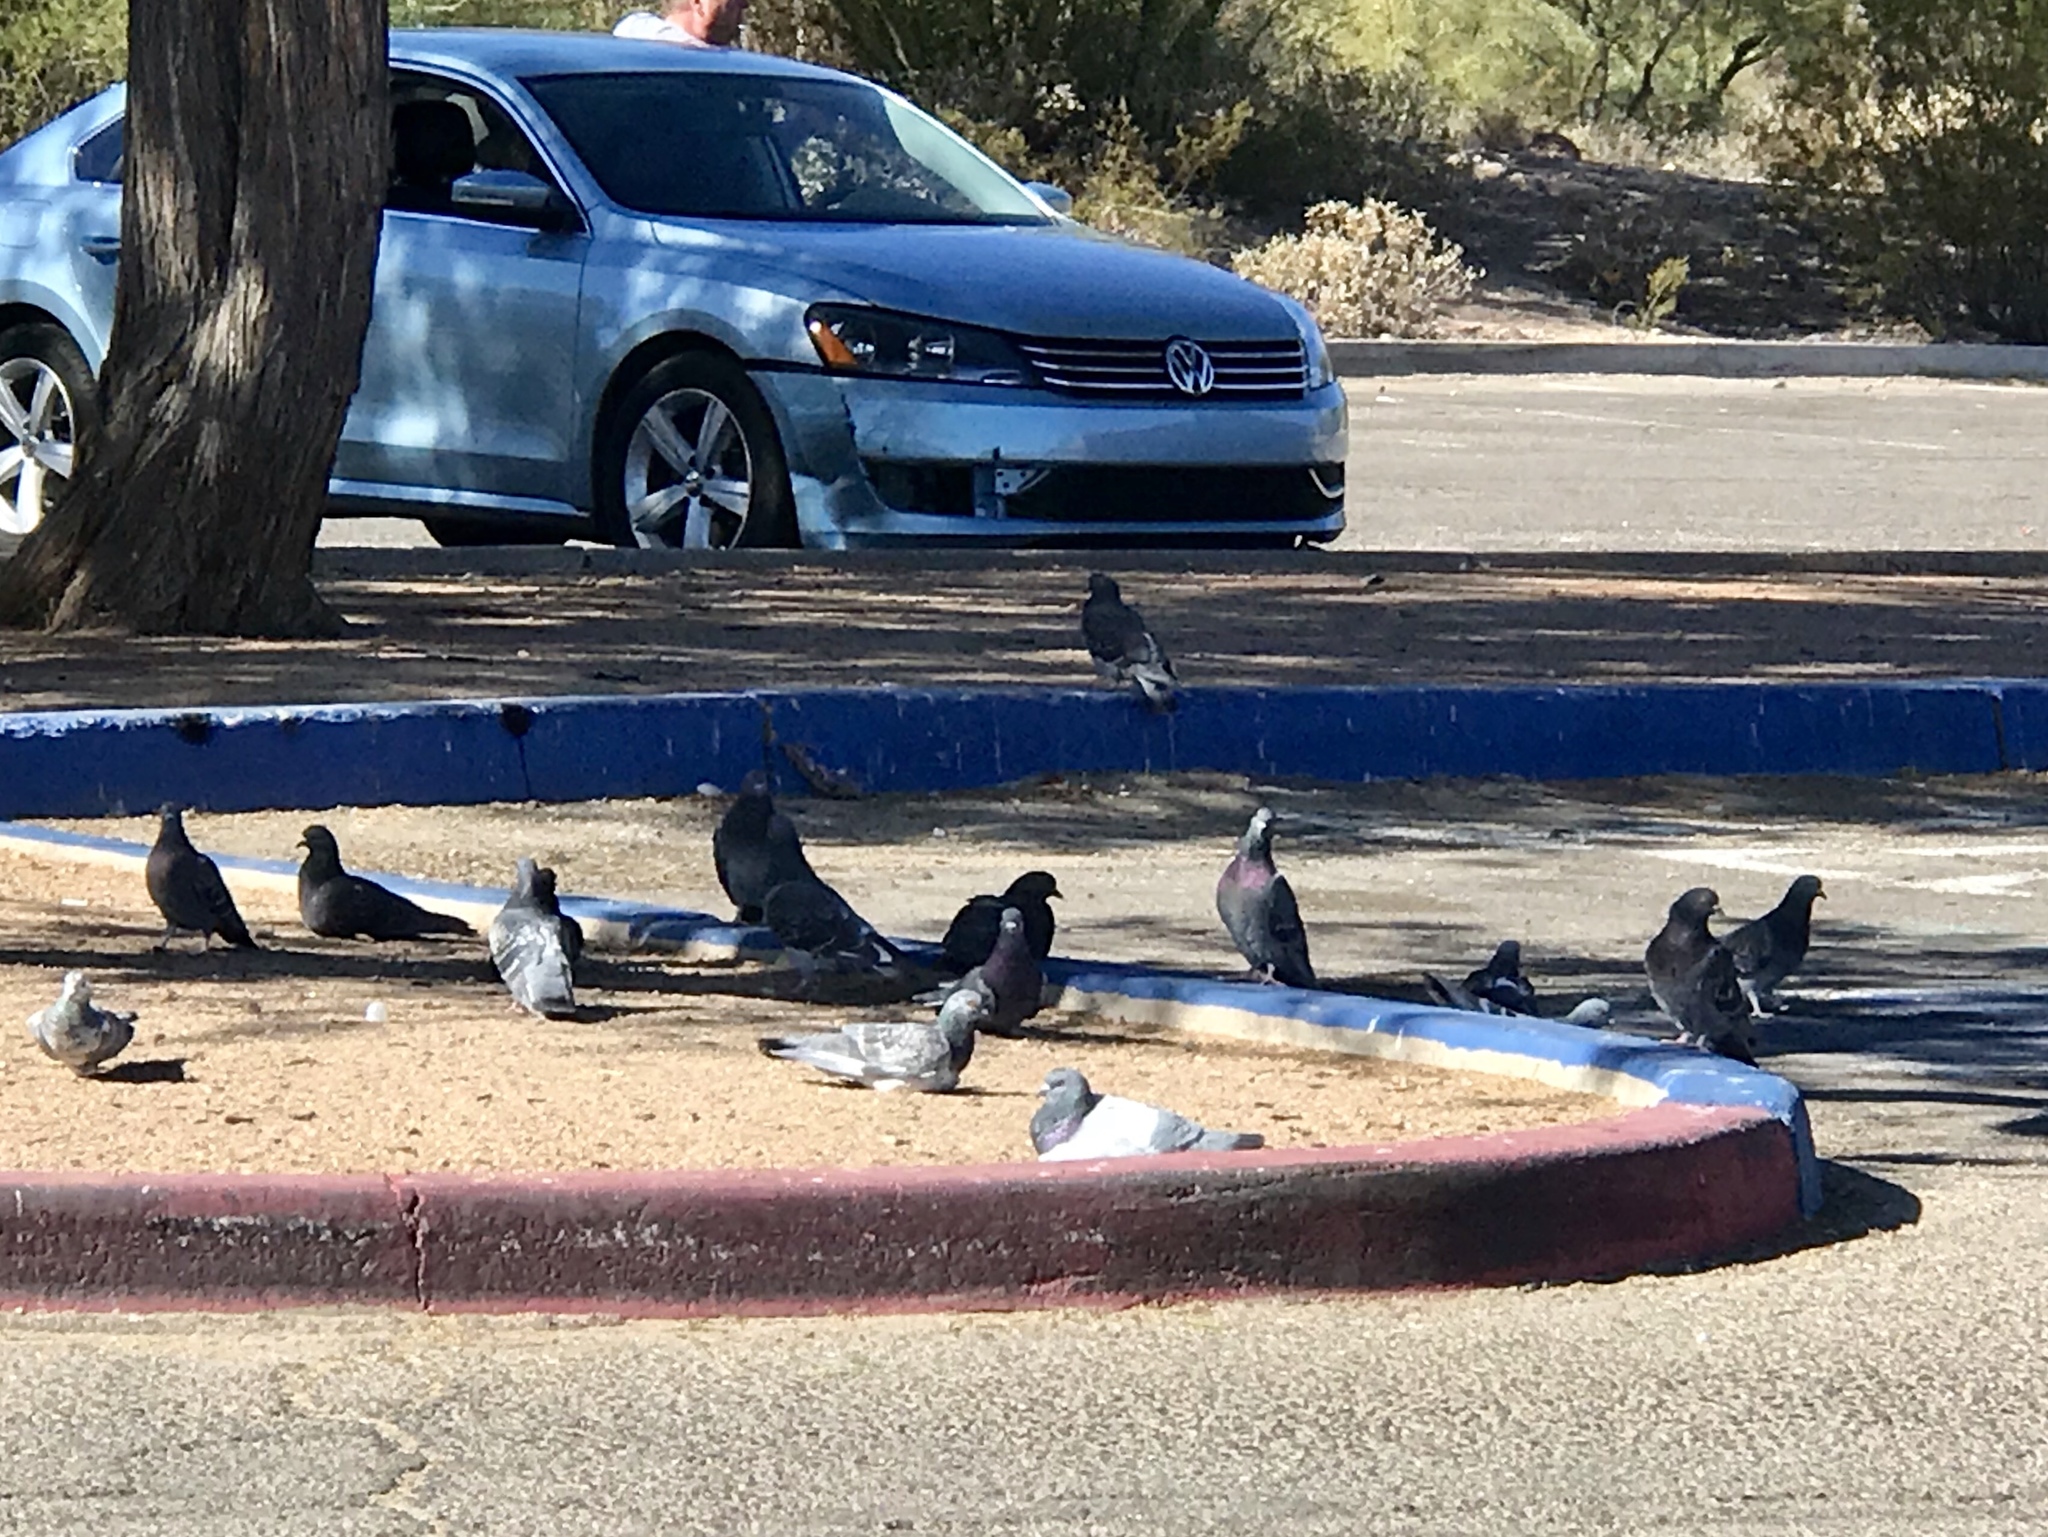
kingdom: Animalia
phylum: Chordata
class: Aves
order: Columbiformes
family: Columbidae
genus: Columba
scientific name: Columba livia
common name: Rock pigeon
